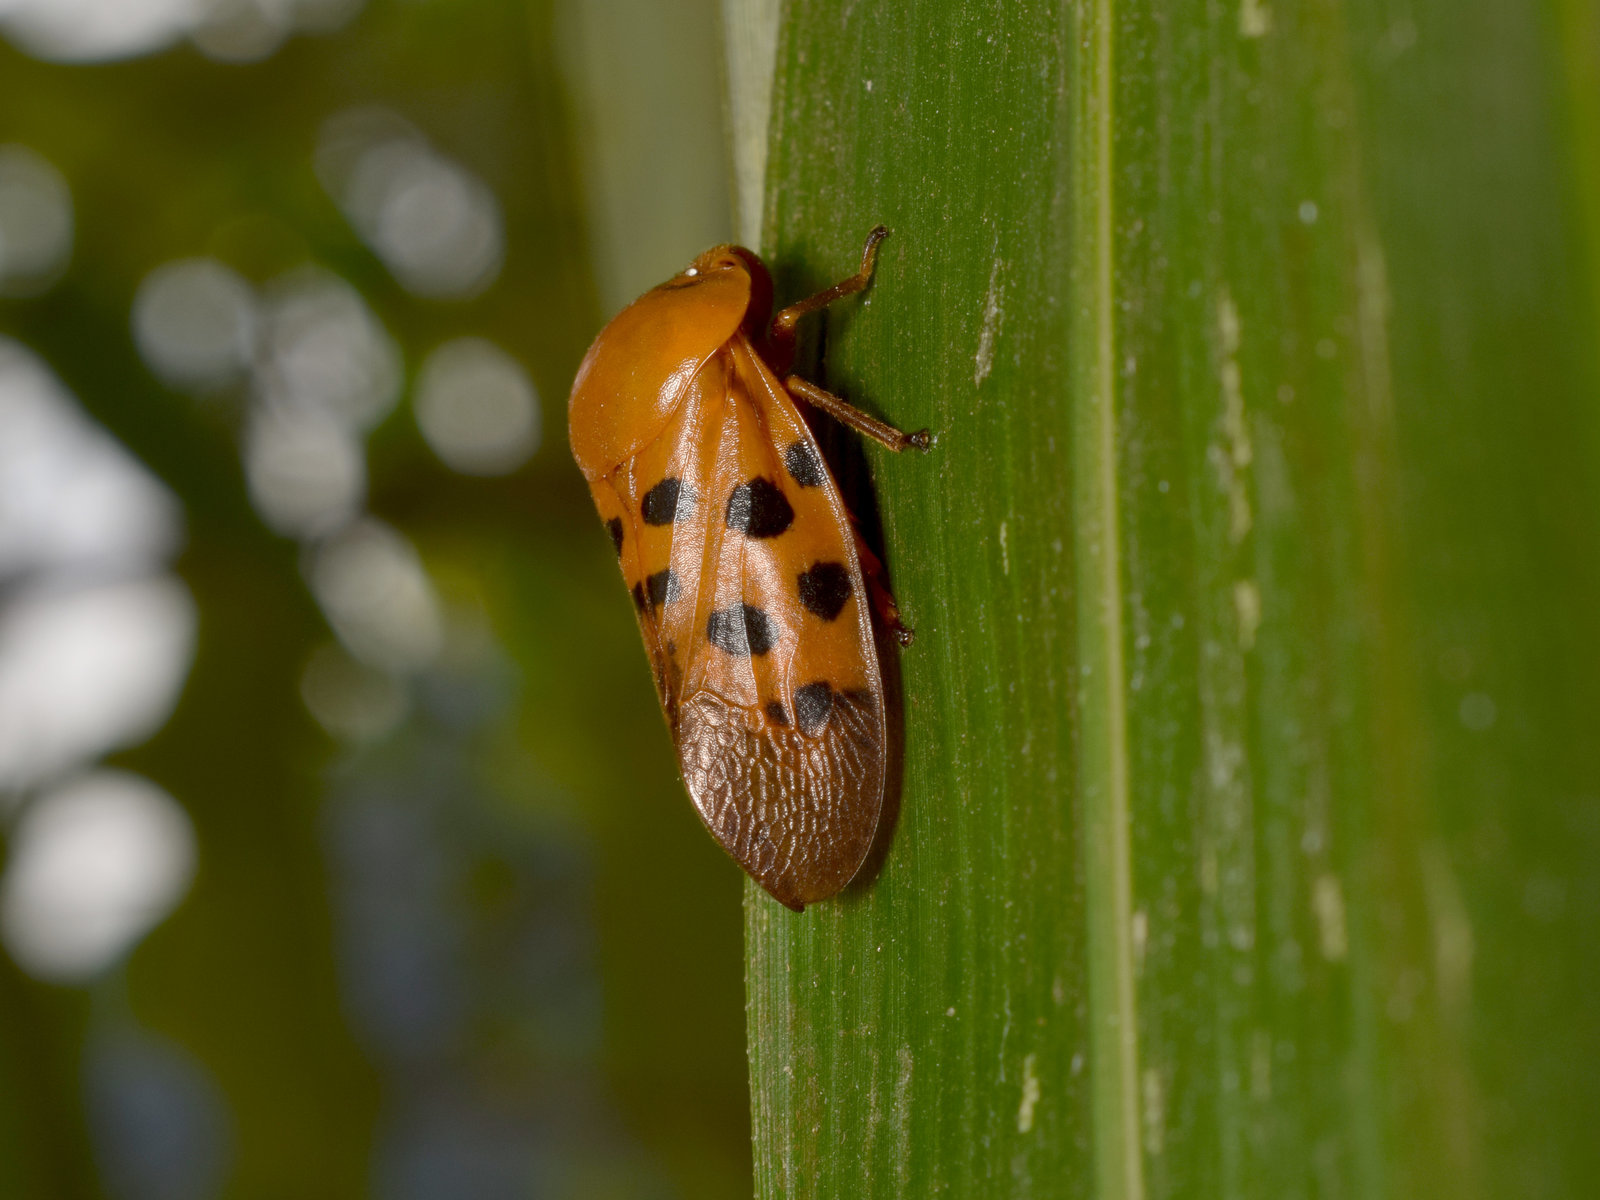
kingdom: Animalia
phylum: Arthropoda
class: Insecta
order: Hemiptera
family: Cercopidae
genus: Homalostethus
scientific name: Homalostethus tabulatus
